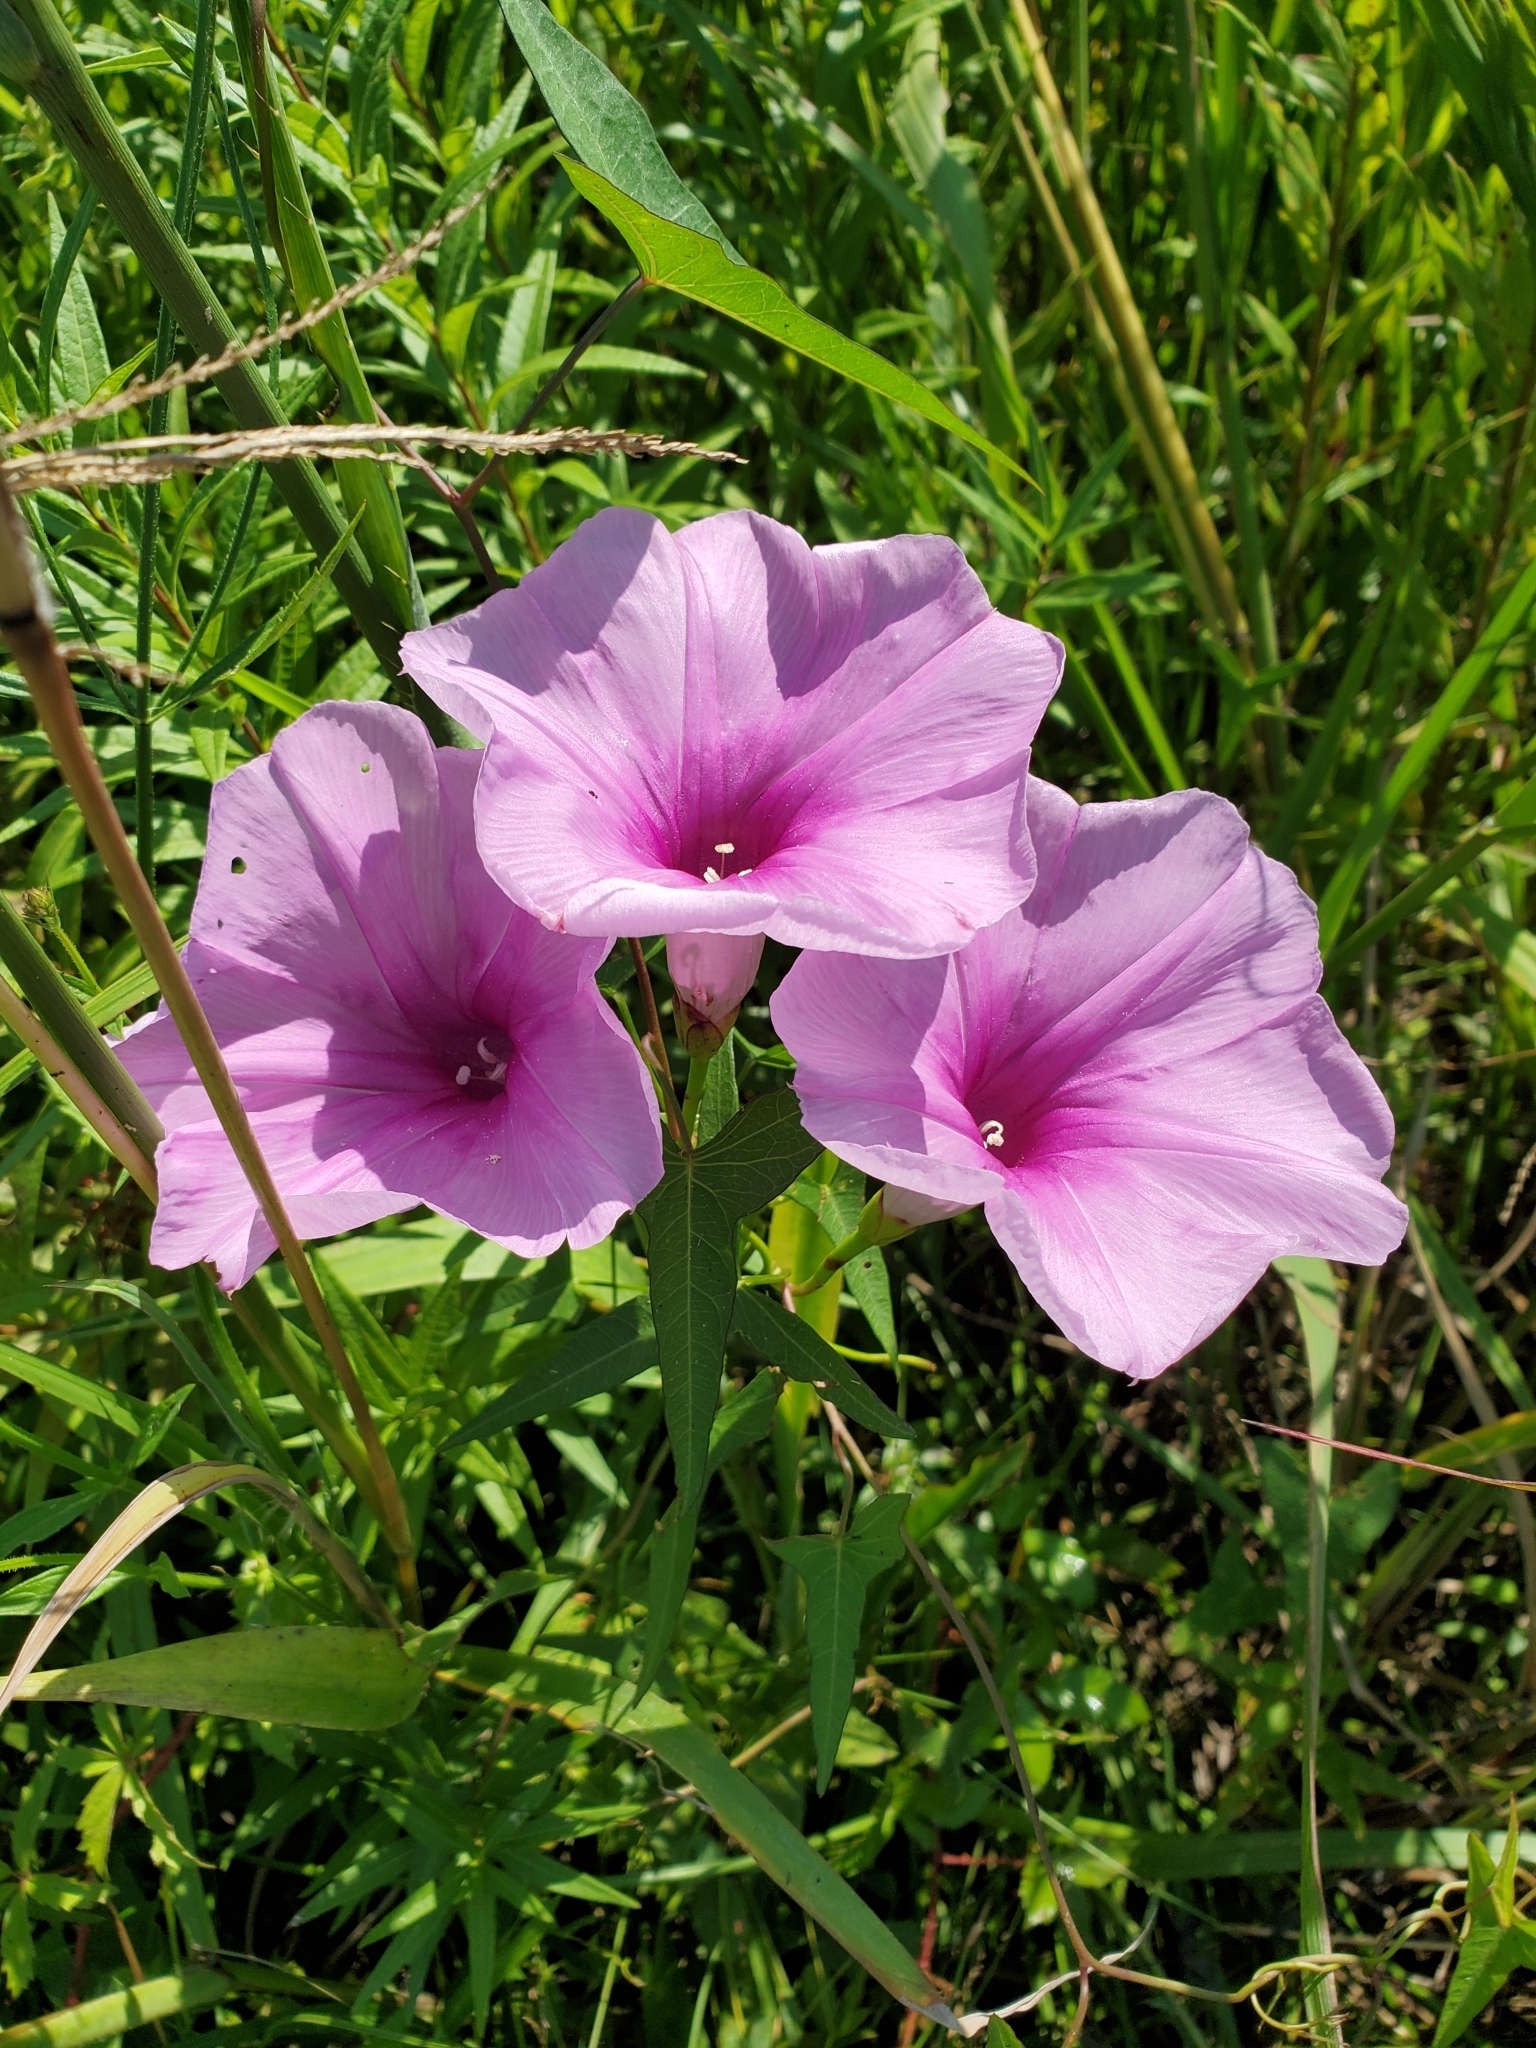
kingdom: Plantae
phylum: Tracheophyta
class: Magnoliopsida
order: Solanales
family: Convolvulaceae
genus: Ipomoea
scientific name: Ipomoea sagittata
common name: Saltmarsh morning glory
